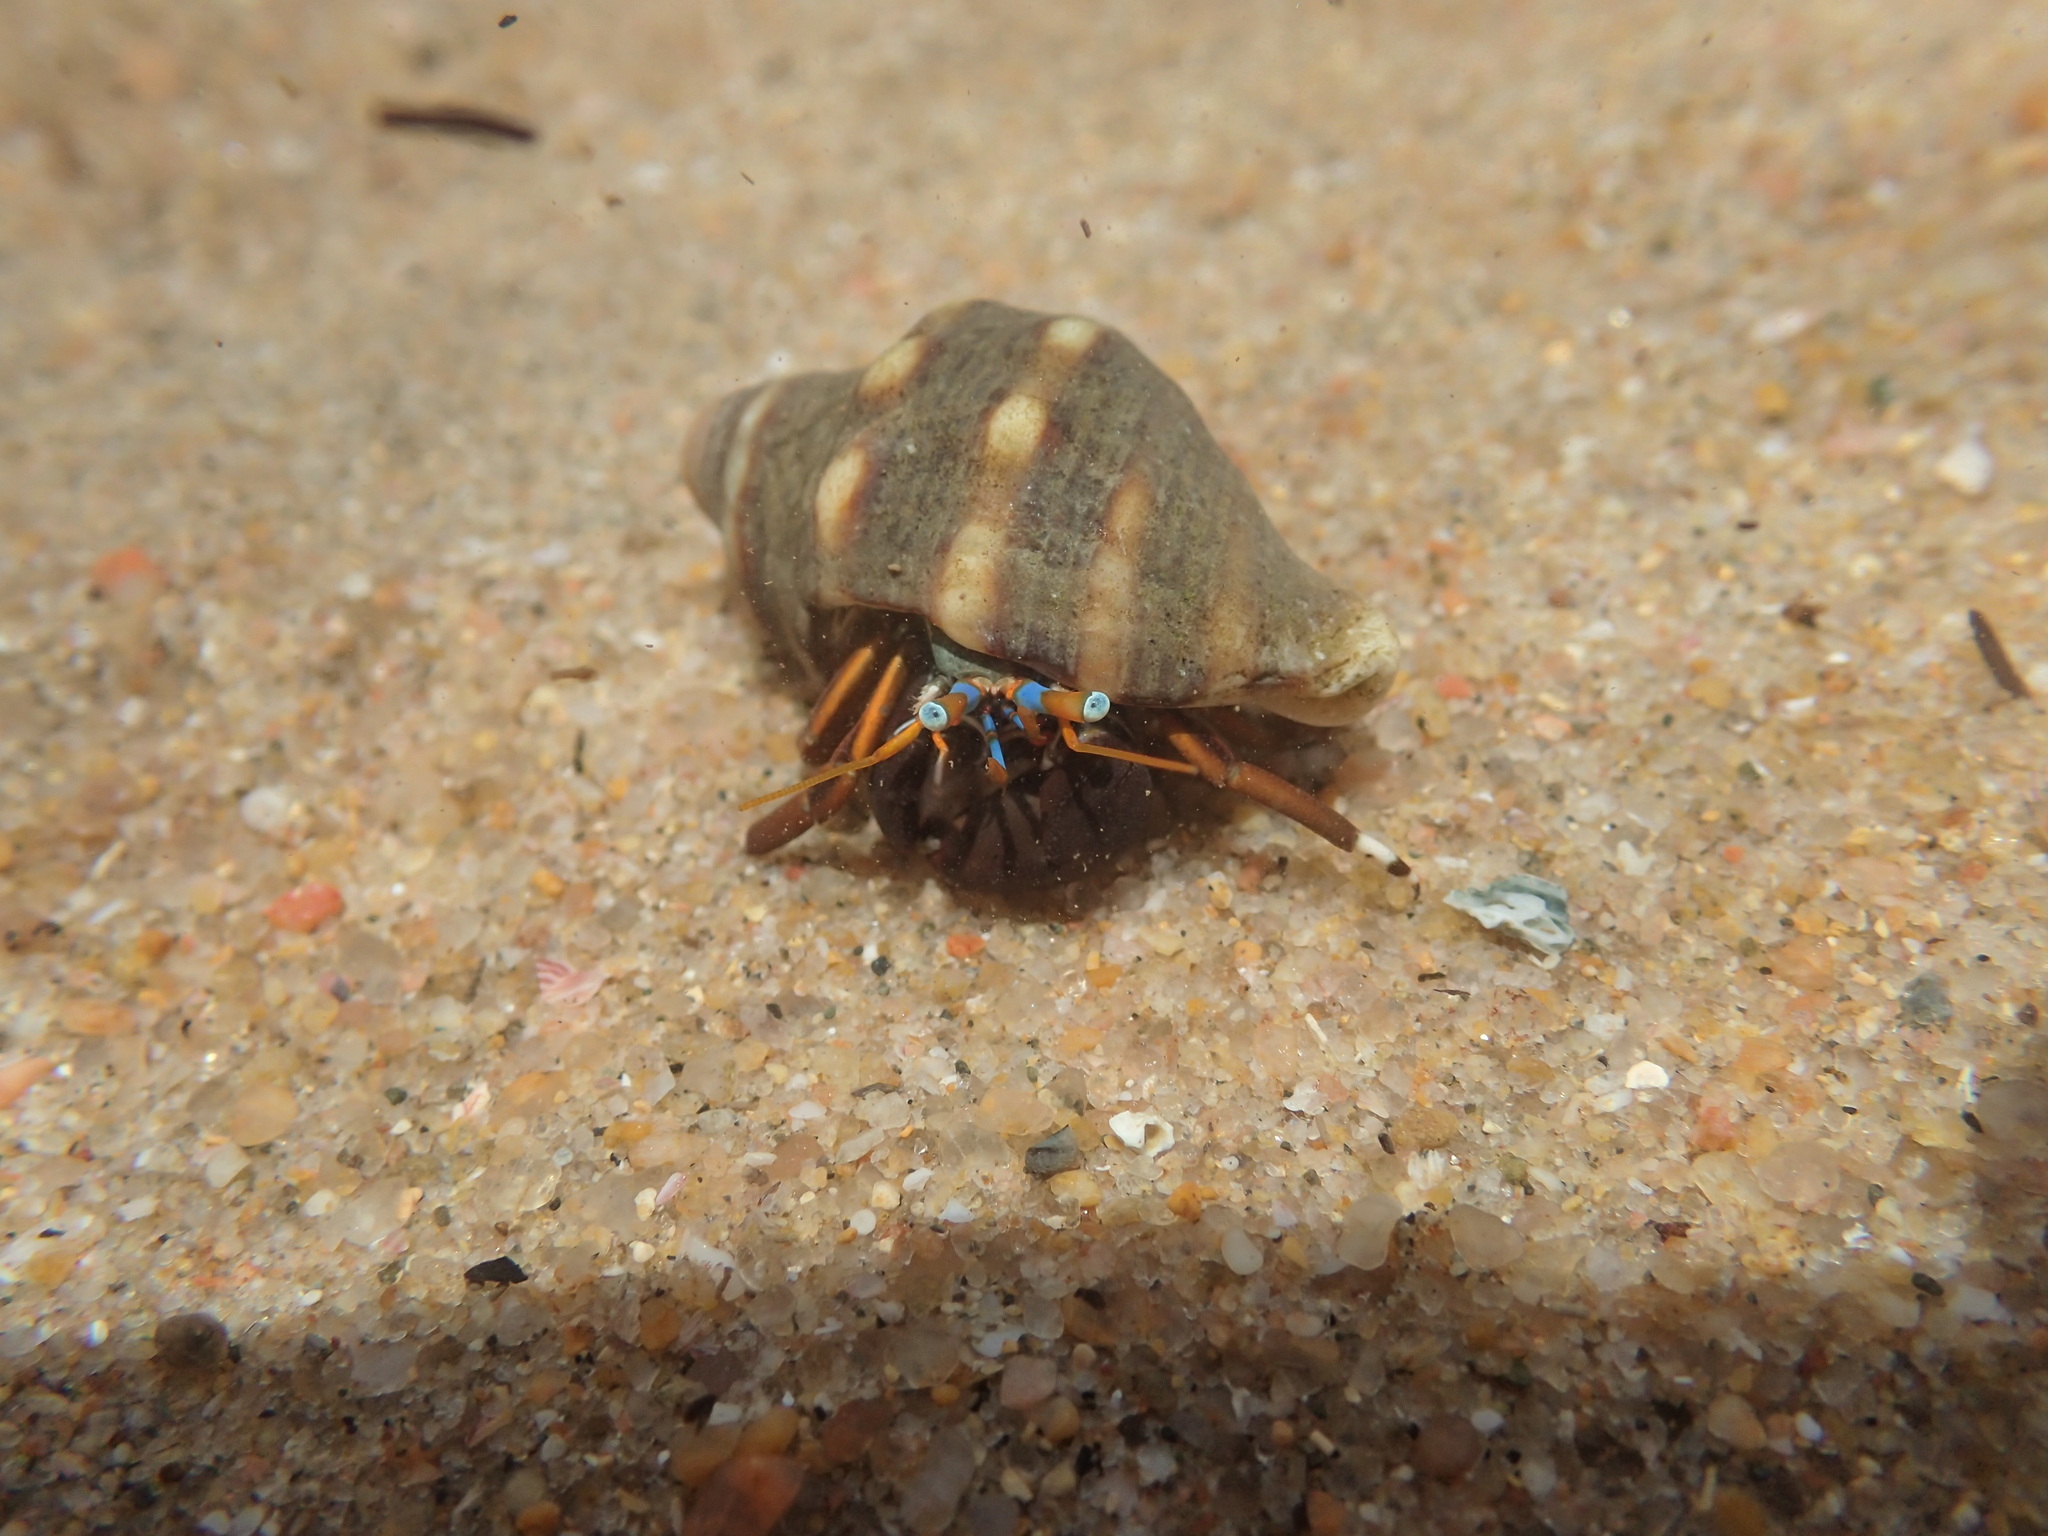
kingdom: Animalia
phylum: Arthropoda
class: Malacostraca
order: Decapoda
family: Diogenidae
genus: Calcinus
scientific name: Calcinus laevimanus
